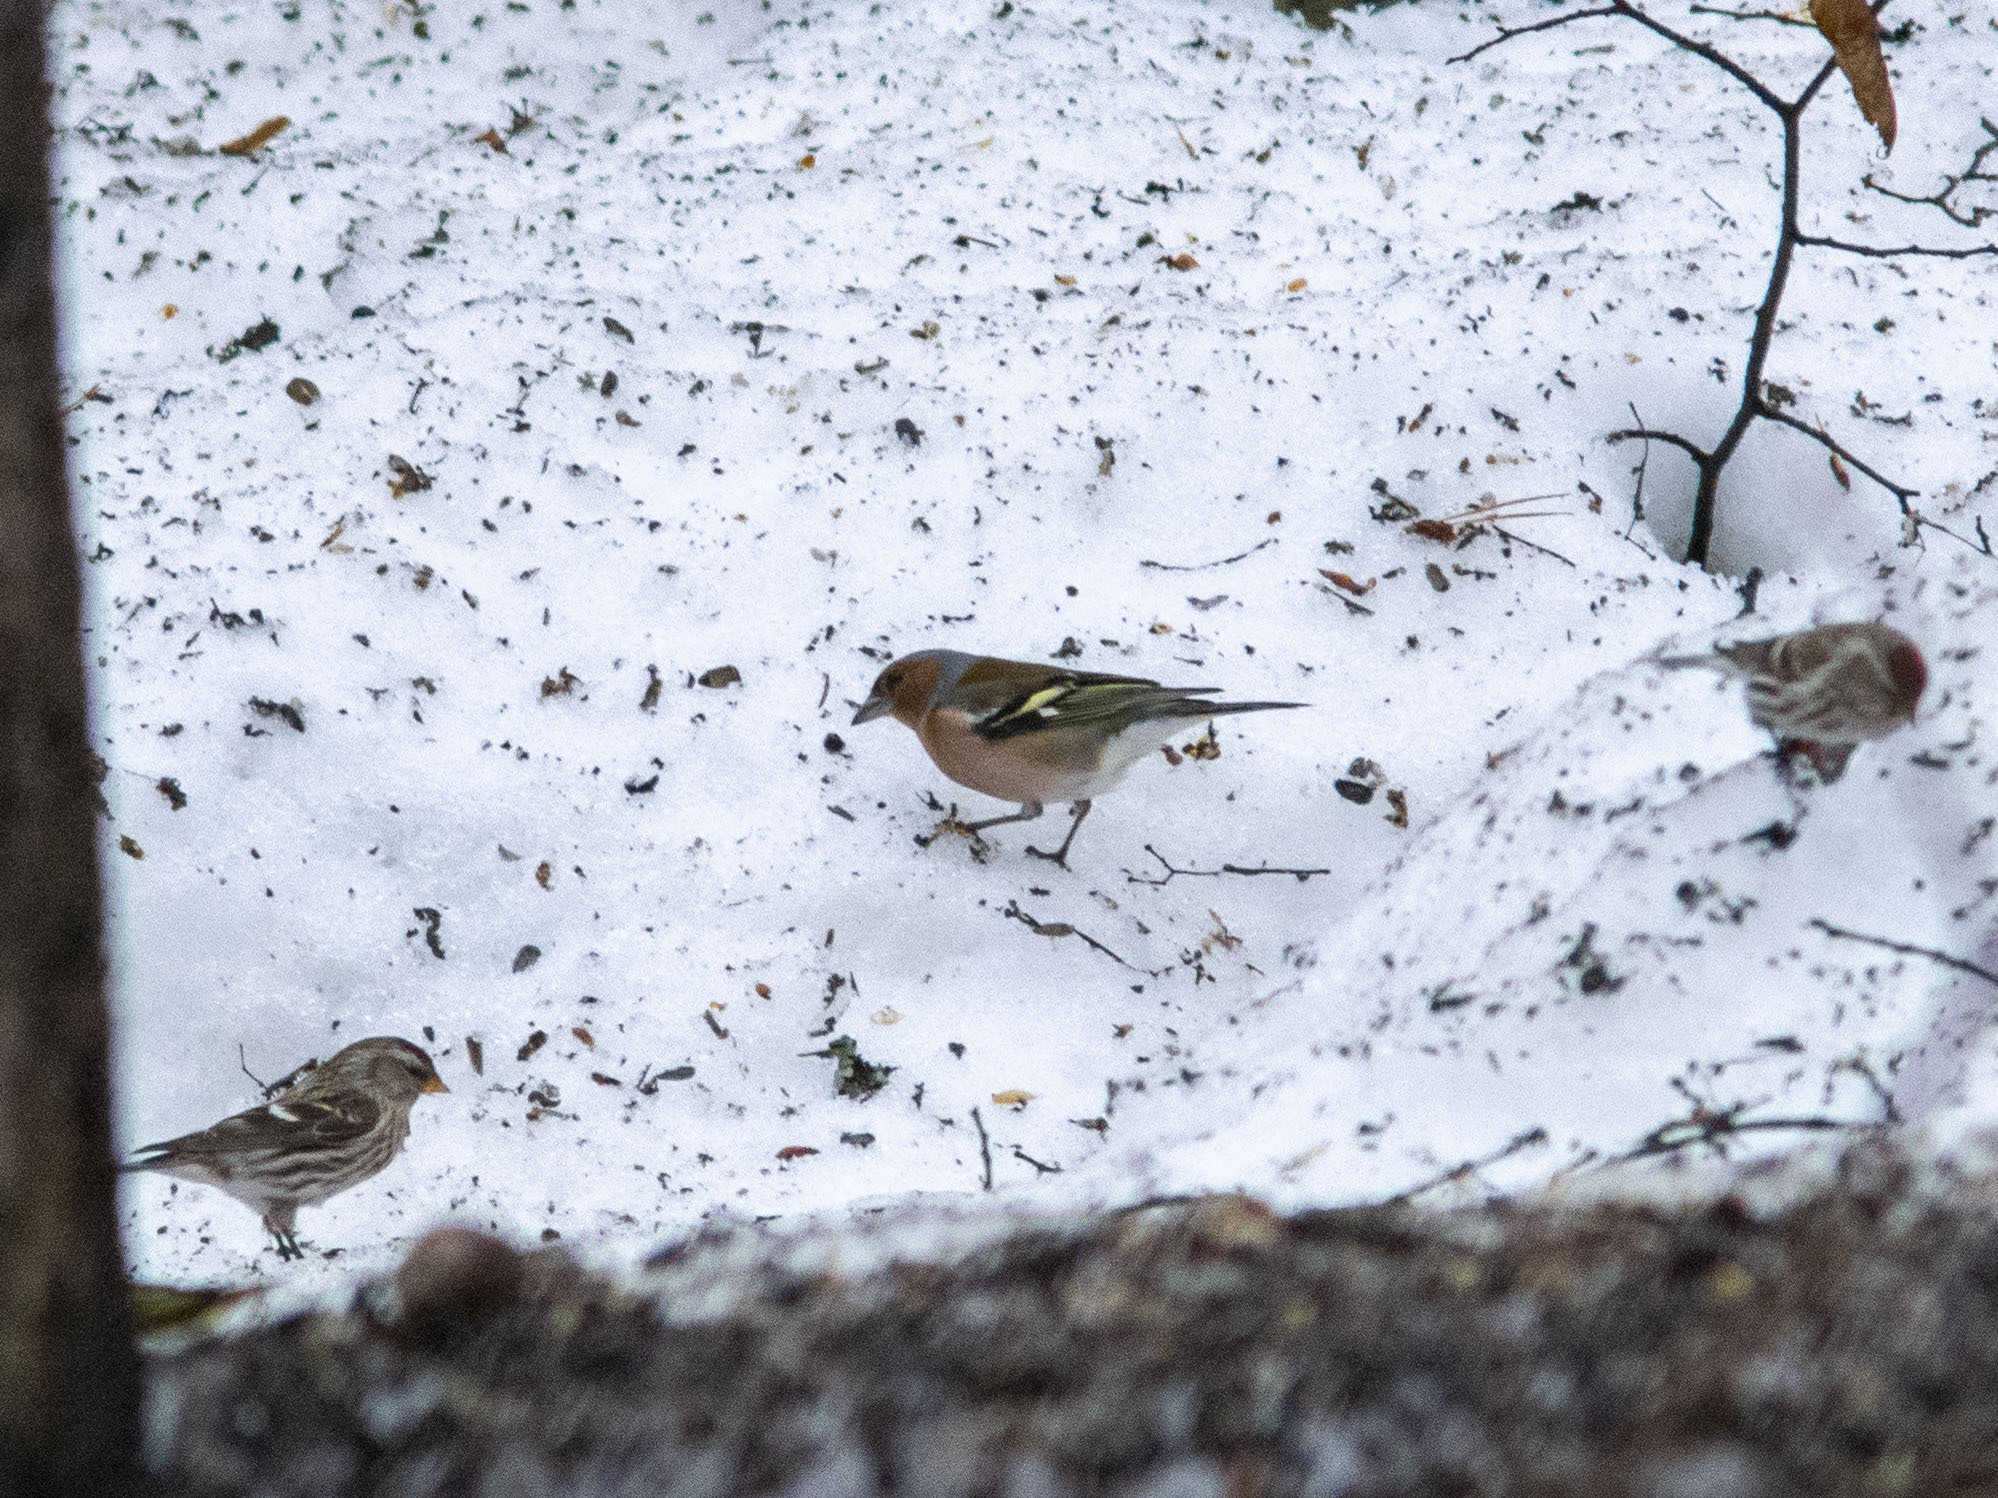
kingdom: Animalia
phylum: Chordata
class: Aves
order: Passeriformes
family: Fringillidae
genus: Fringilla
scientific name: Fringilla coelebs
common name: Common chaffinch
